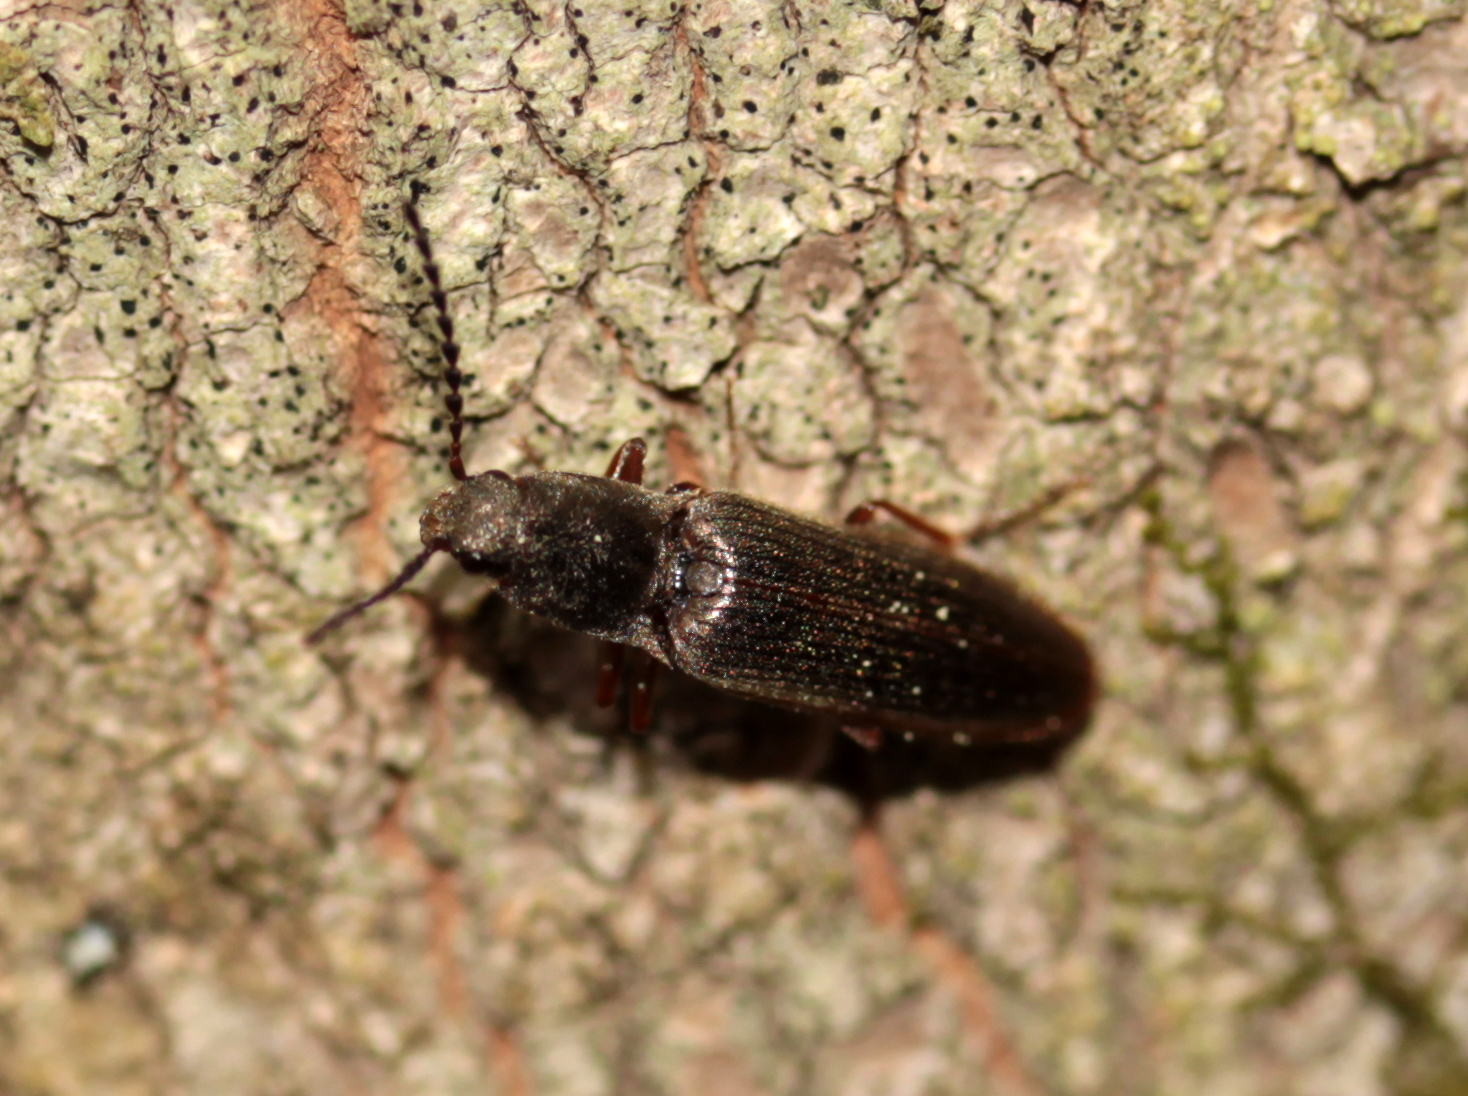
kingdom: Animalia
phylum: Arthropoda
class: Insecta
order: Coleoptera
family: Elateridae
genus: Sylvanelater
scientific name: Sylvanelater cylindriformis
